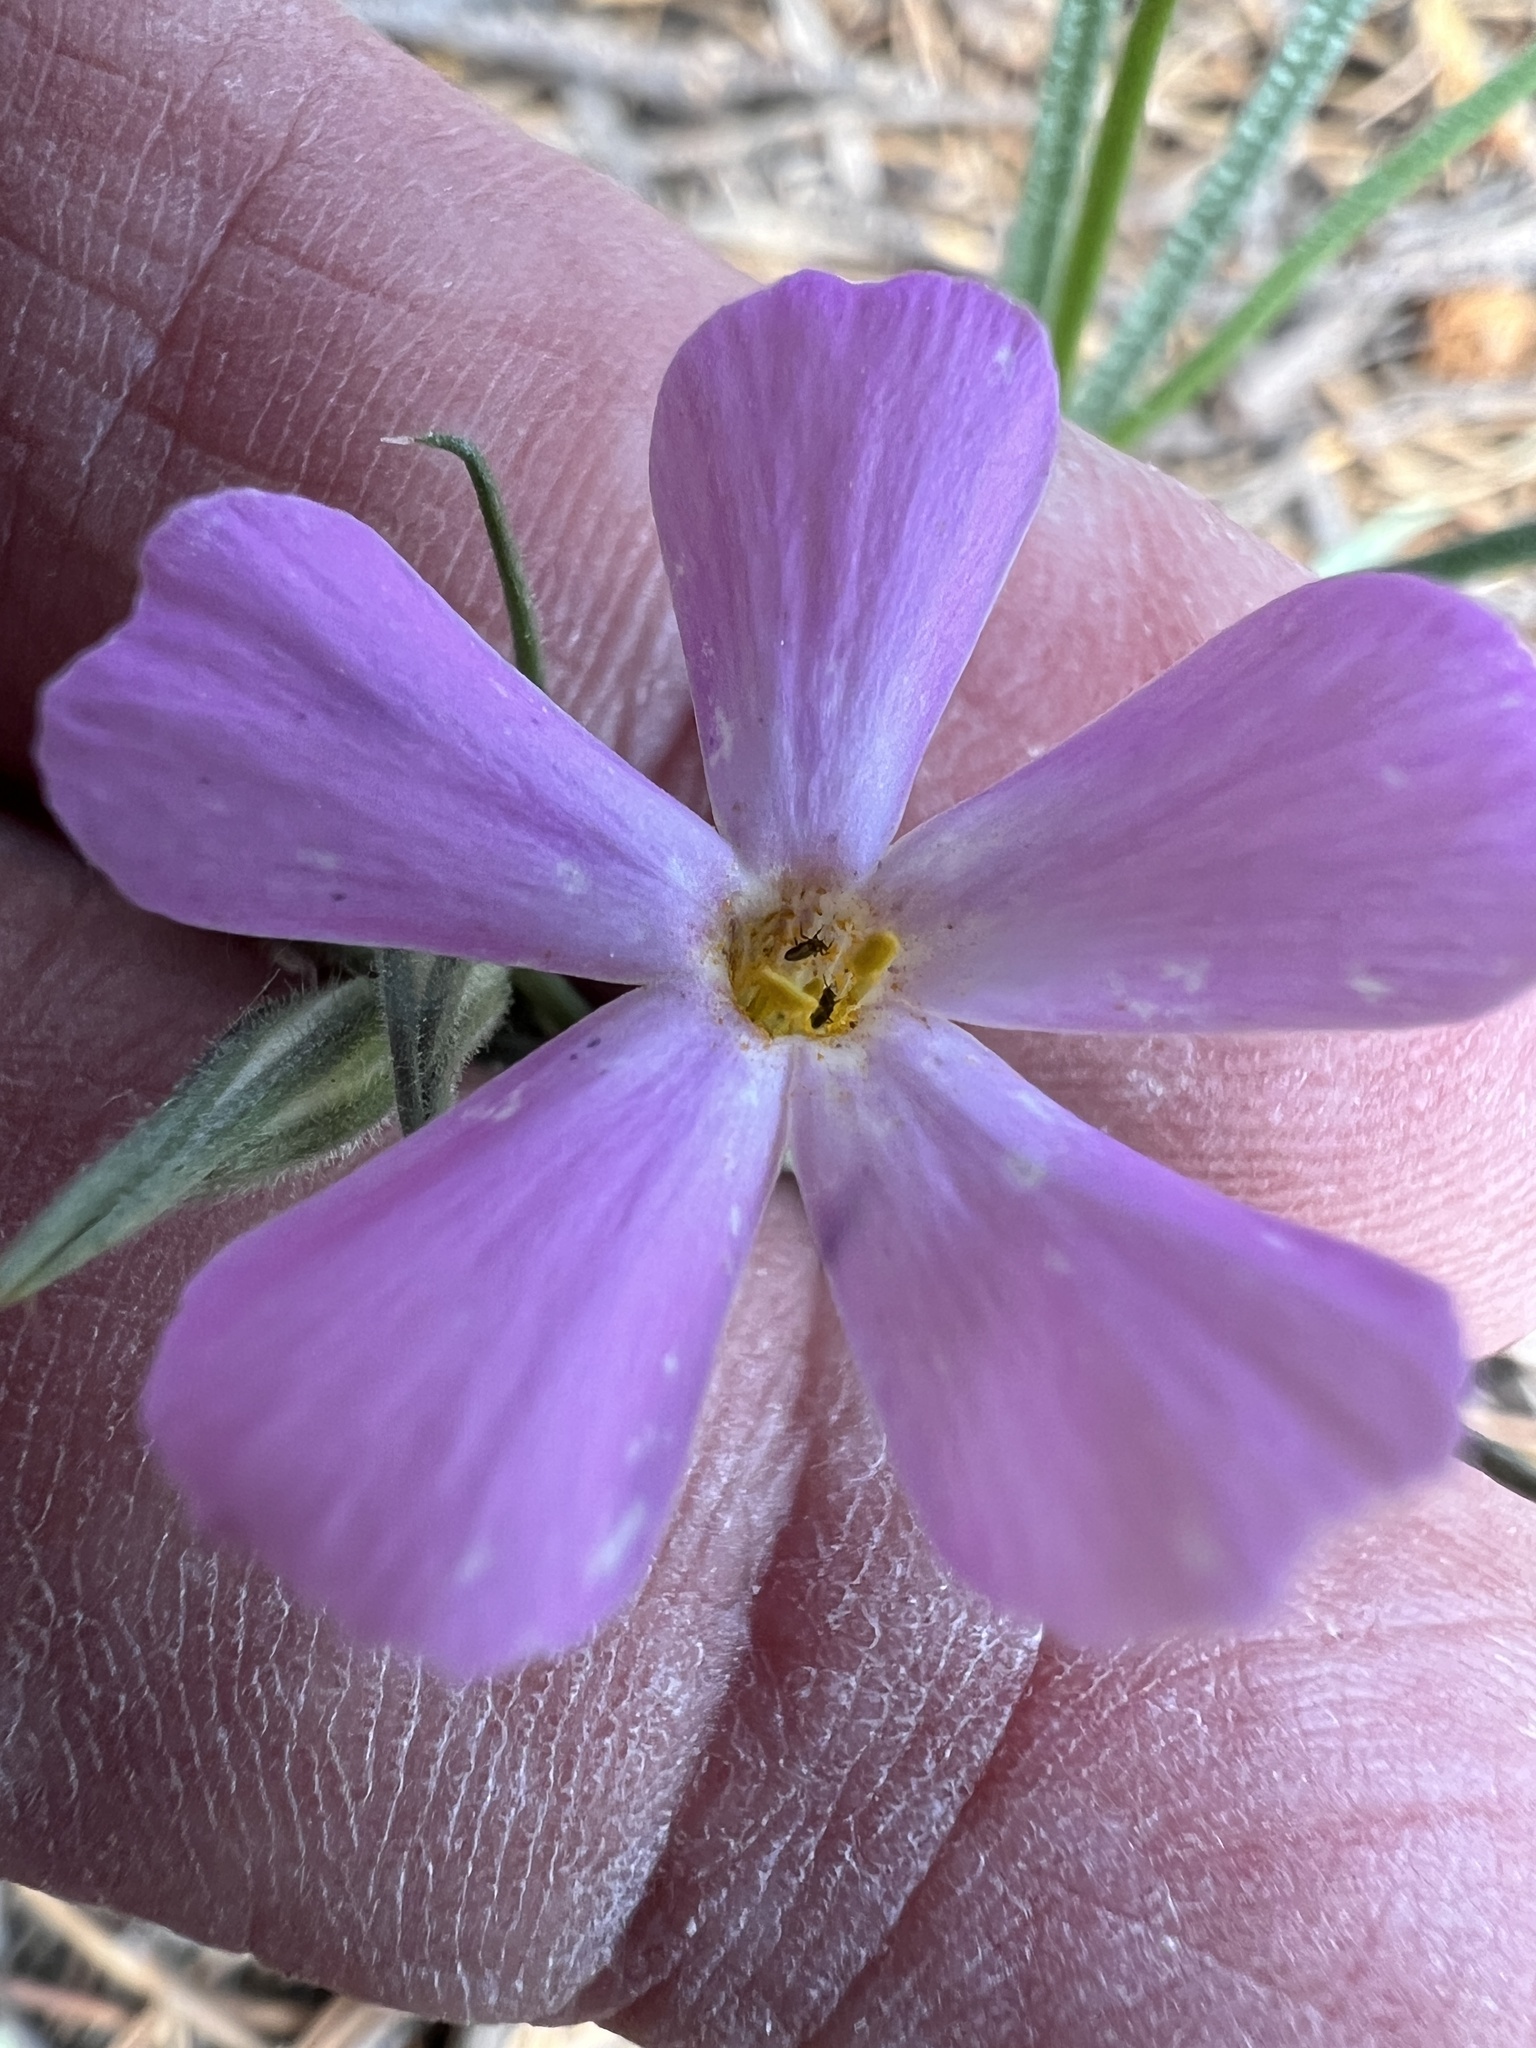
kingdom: Plantae
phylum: Tracheophyta
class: Magnoliopsida
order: Ericales
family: Polemoniaceae
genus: Phlox
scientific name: Phlox longifolia
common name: Longleaf phlox
